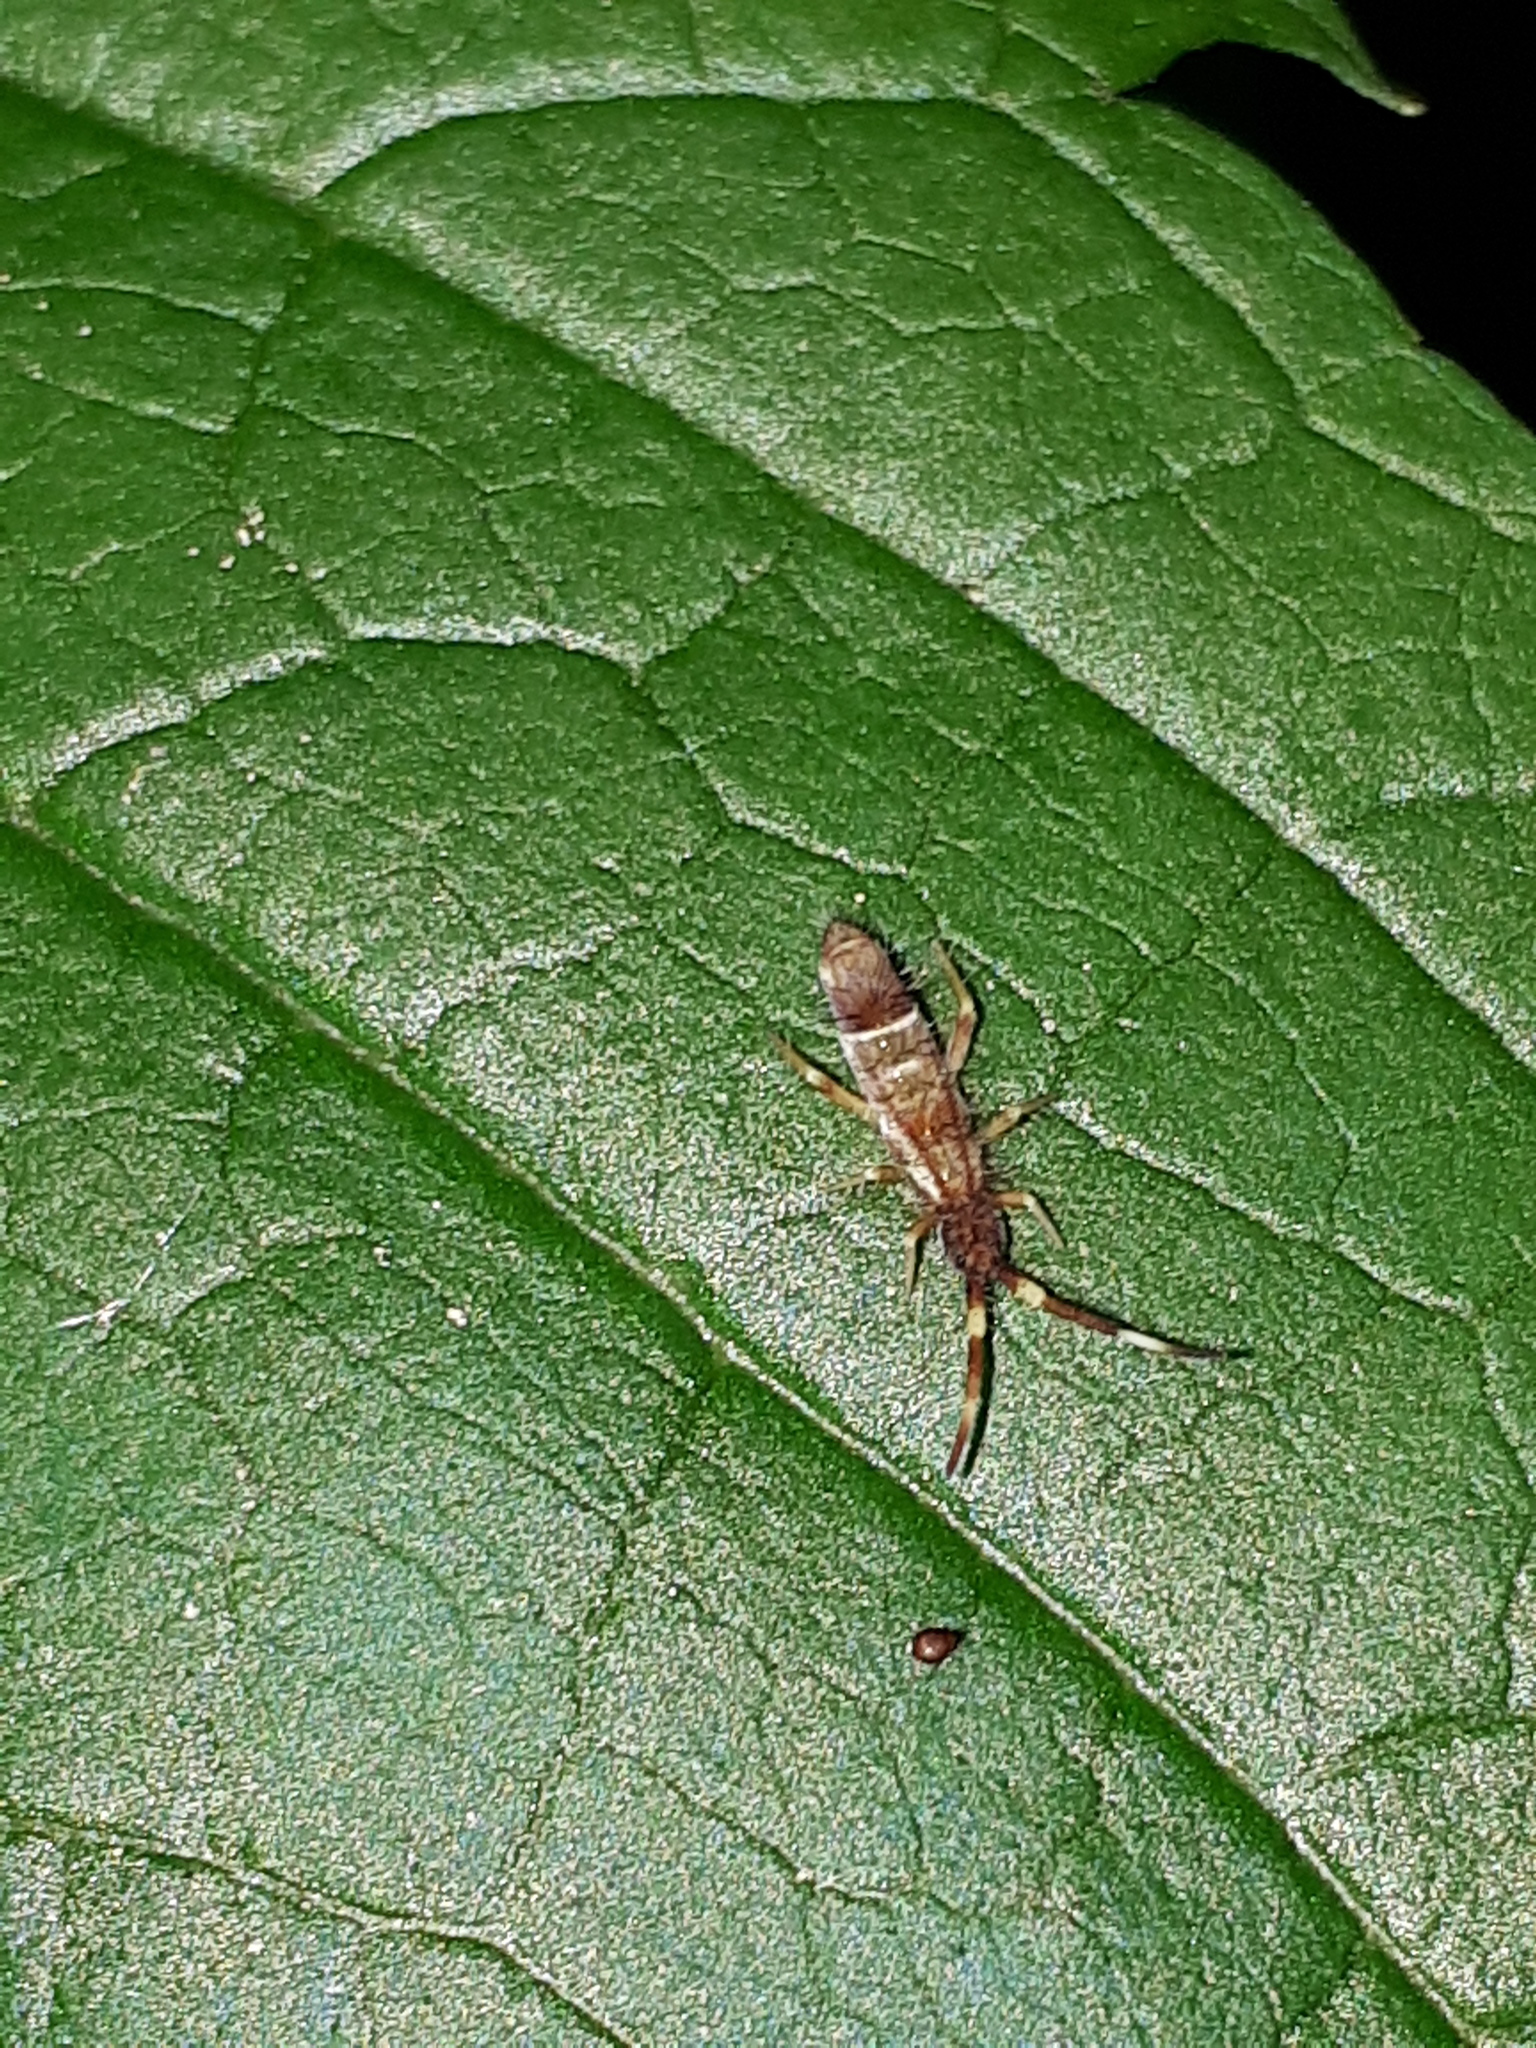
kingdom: Animalia
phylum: Arthropoda
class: Collembola
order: Entomobryomorpha
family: Entomobryidae
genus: Entomobrya
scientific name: Entomobrya nivalis
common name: Cosmopolitan springtail
